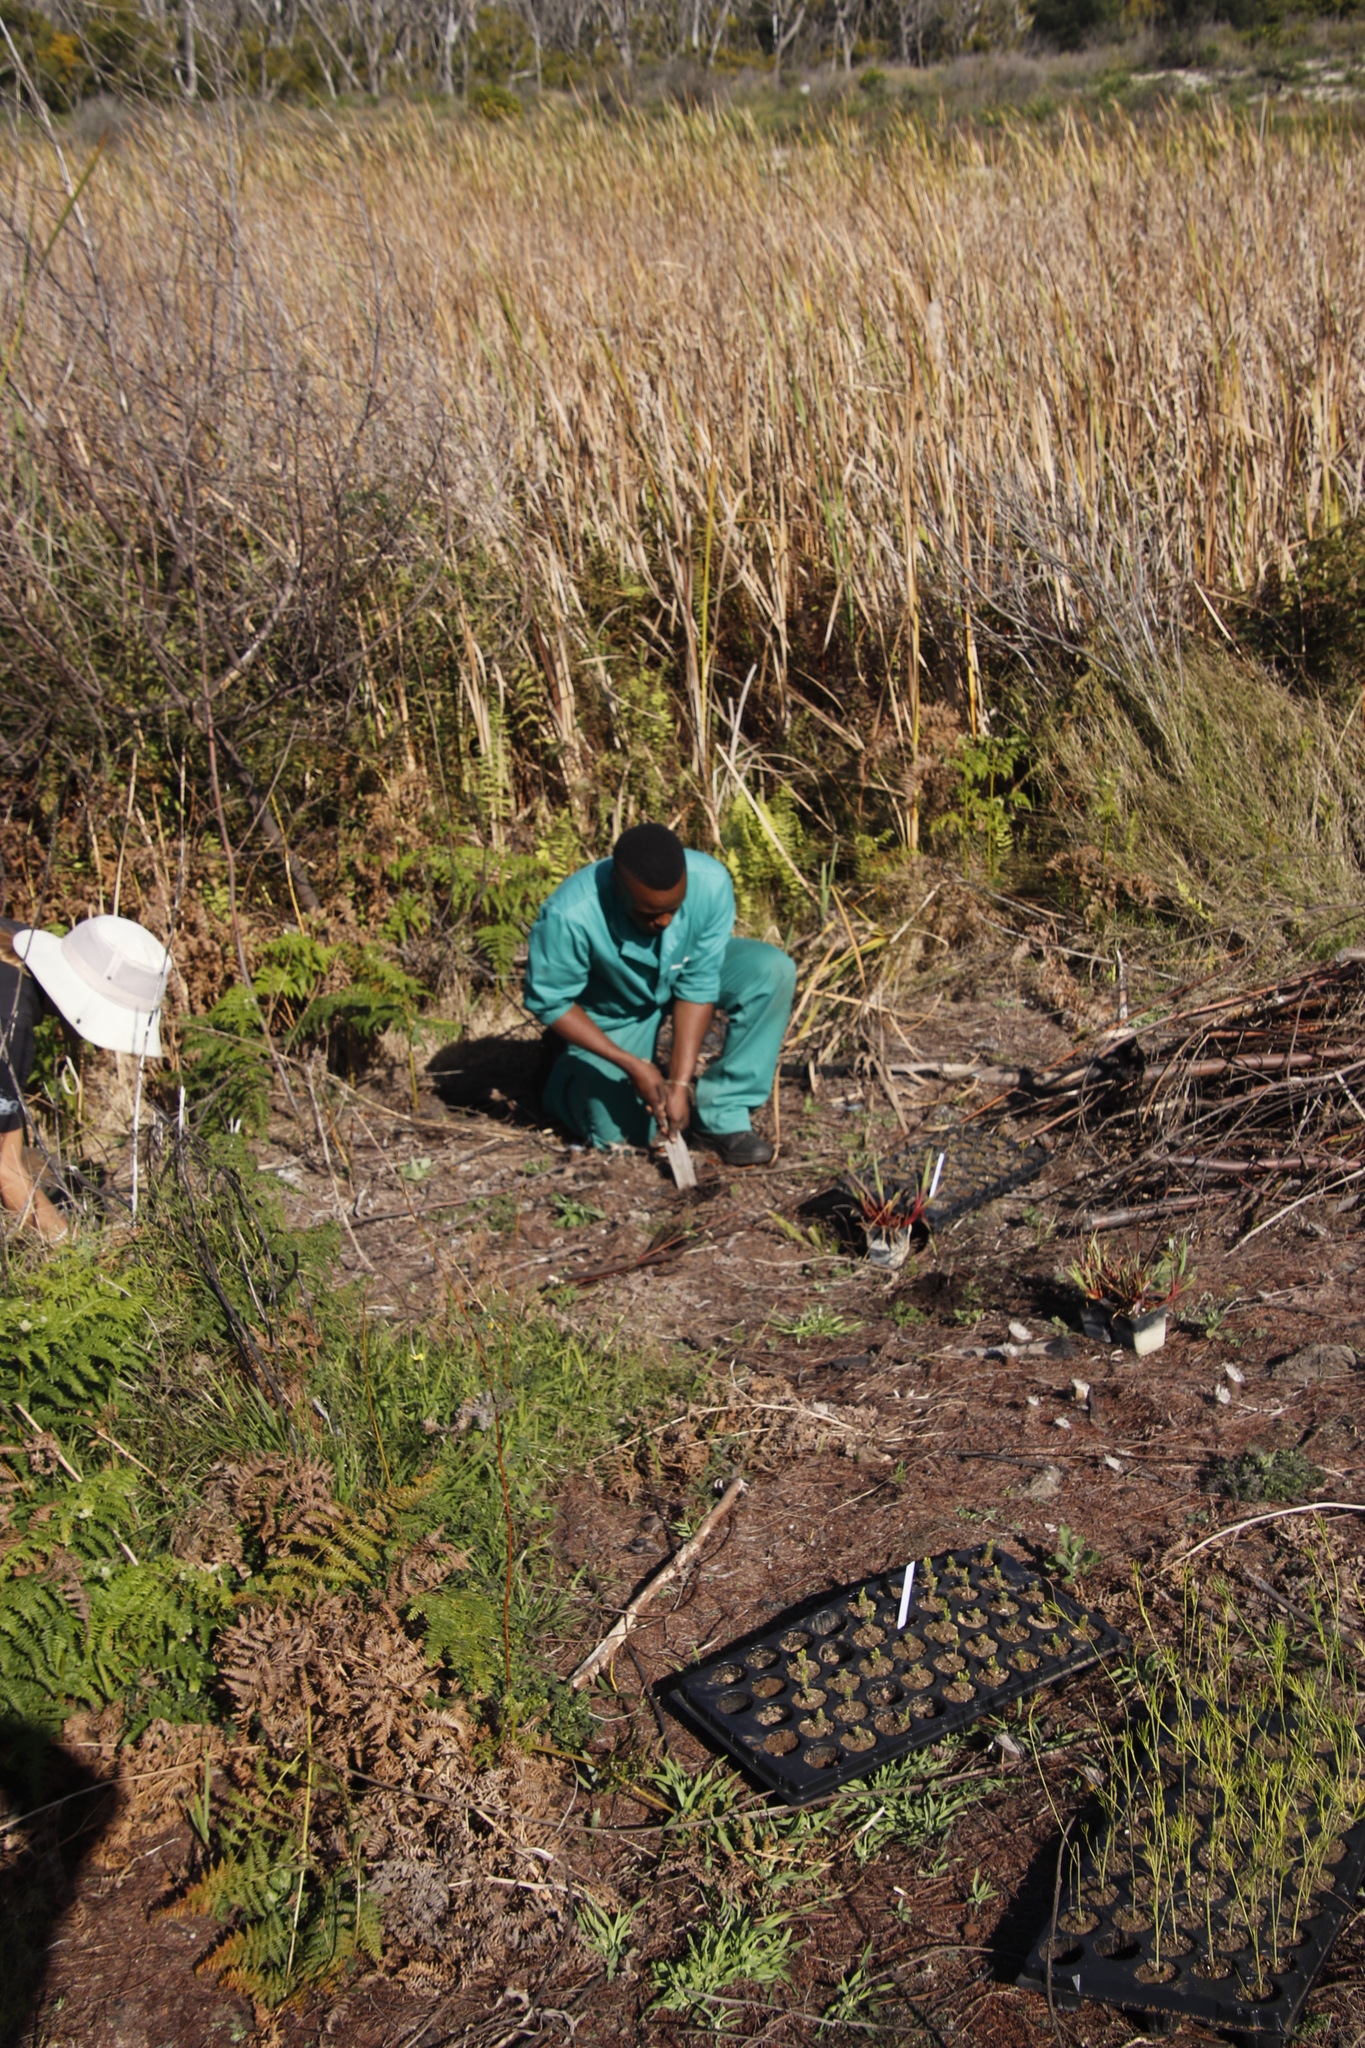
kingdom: Plantae
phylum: Tracheophyta
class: Polypodiopsida
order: Polypodiales
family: Dennstaedtiaceae
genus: Pteridium
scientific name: Pteridium aquilinum
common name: Bracken
